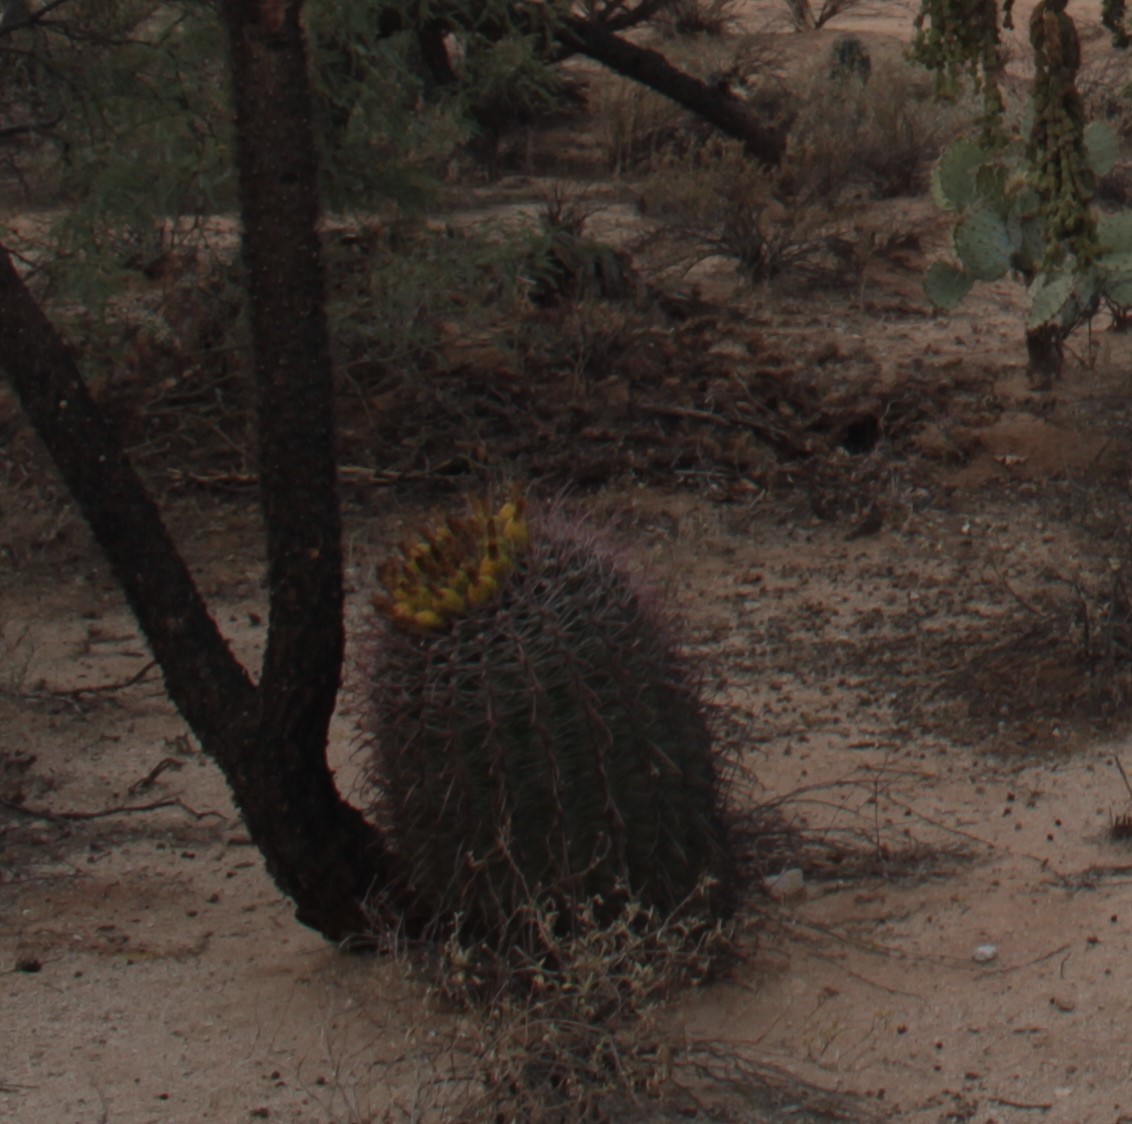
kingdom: Plantae
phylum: Tracheophyta
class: Magnoliopsida
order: Caryophyllales
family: Cactaceae
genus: Ferocactus
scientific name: Ferocactus wislizeni
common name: Candy barrel cactus
